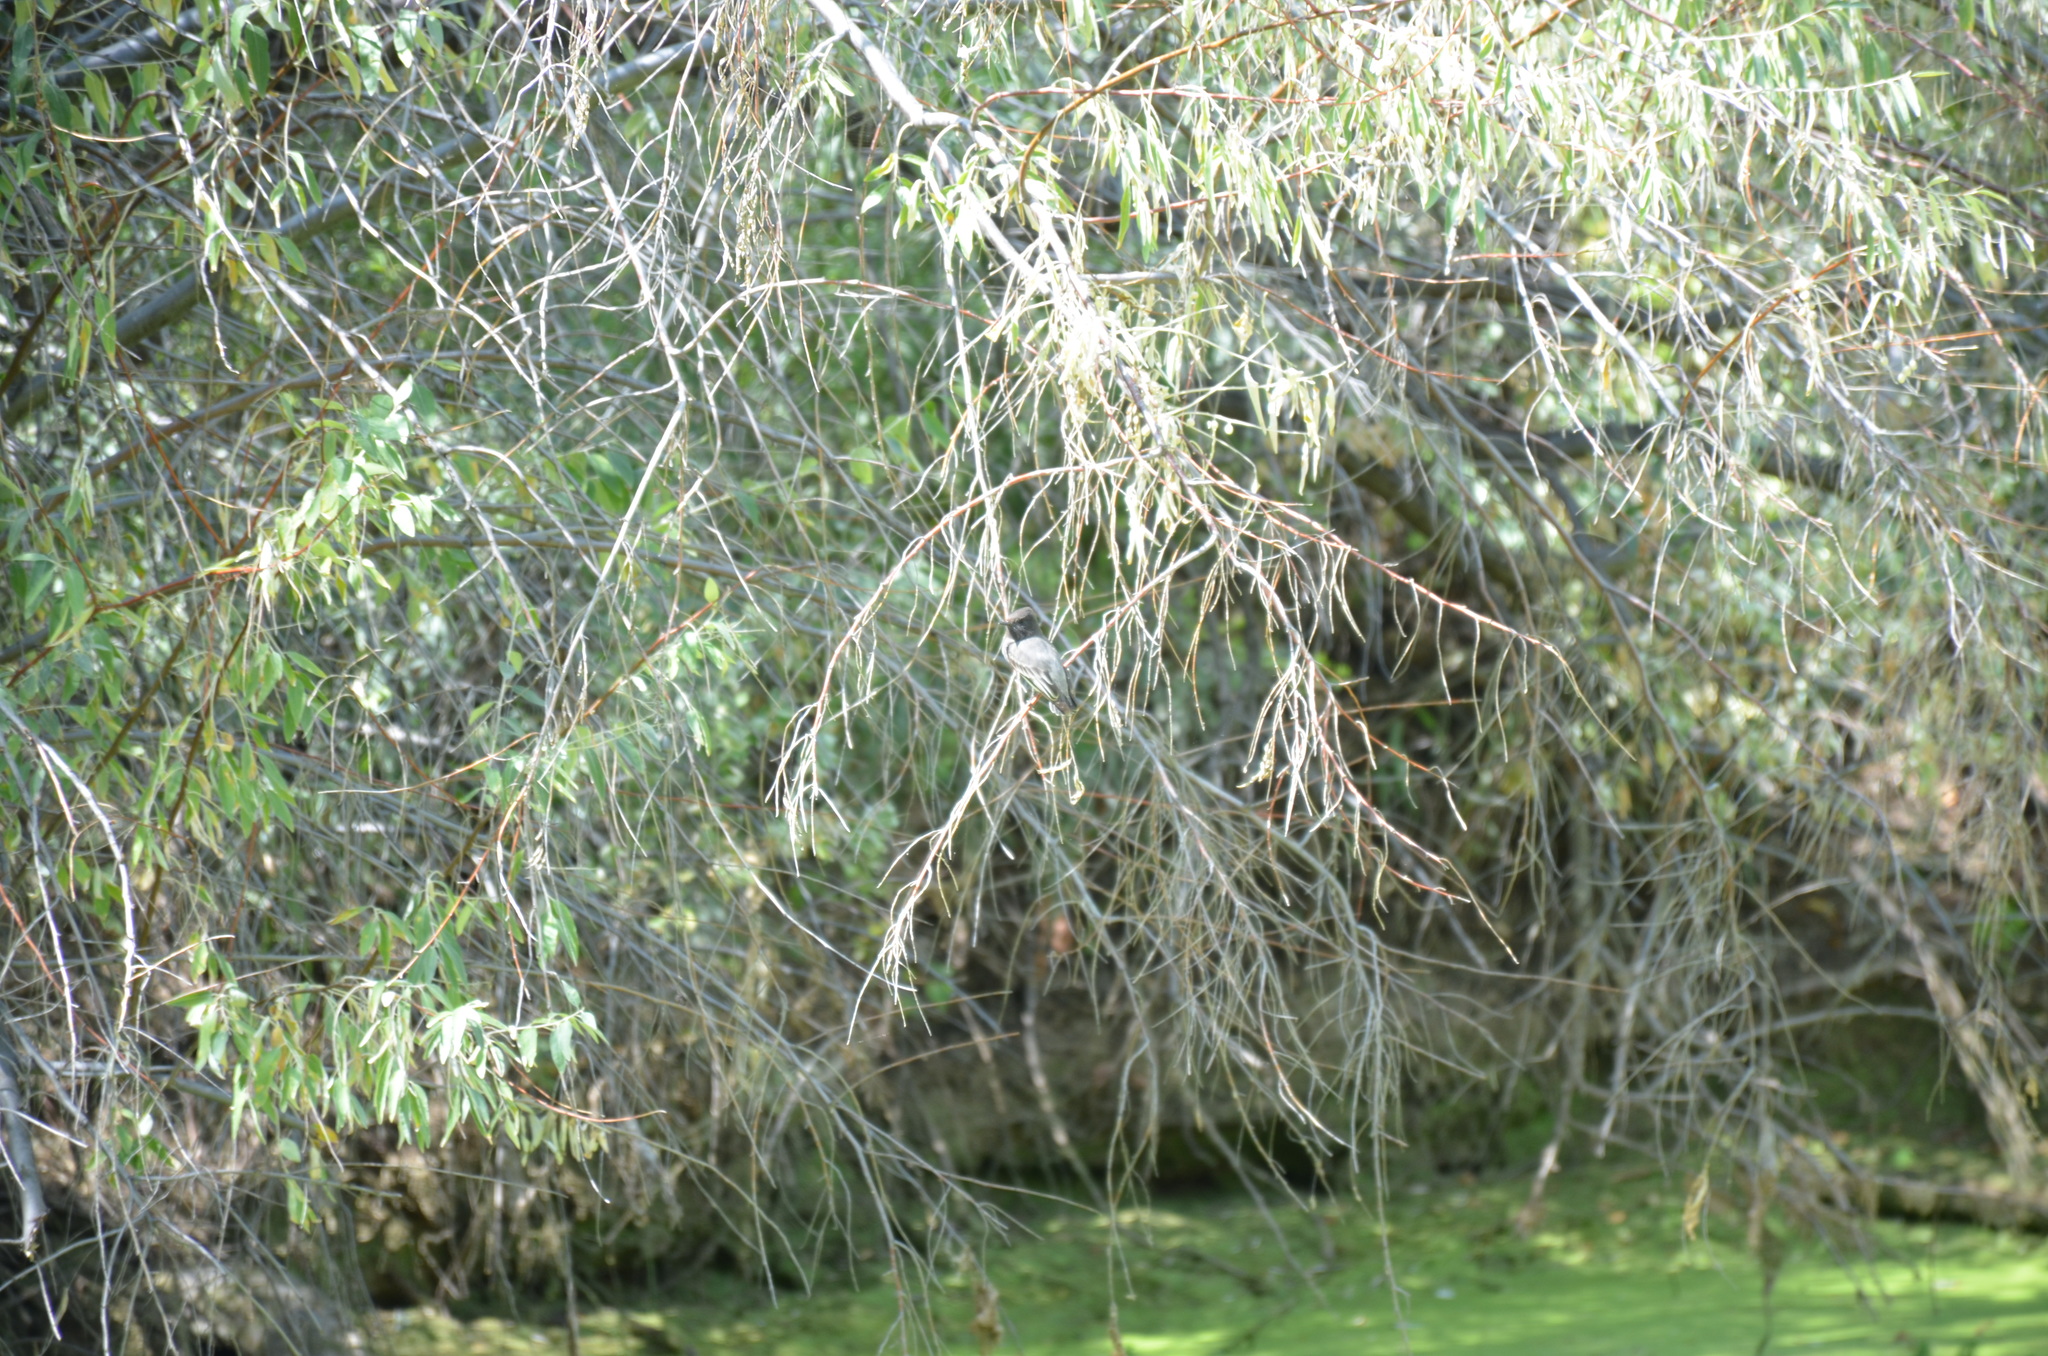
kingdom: Animalia
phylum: Chordata
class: Aves
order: Passeriformes
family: Tyrannidae
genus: Sayornis
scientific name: Sayornis nigricans
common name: Black phoebe
